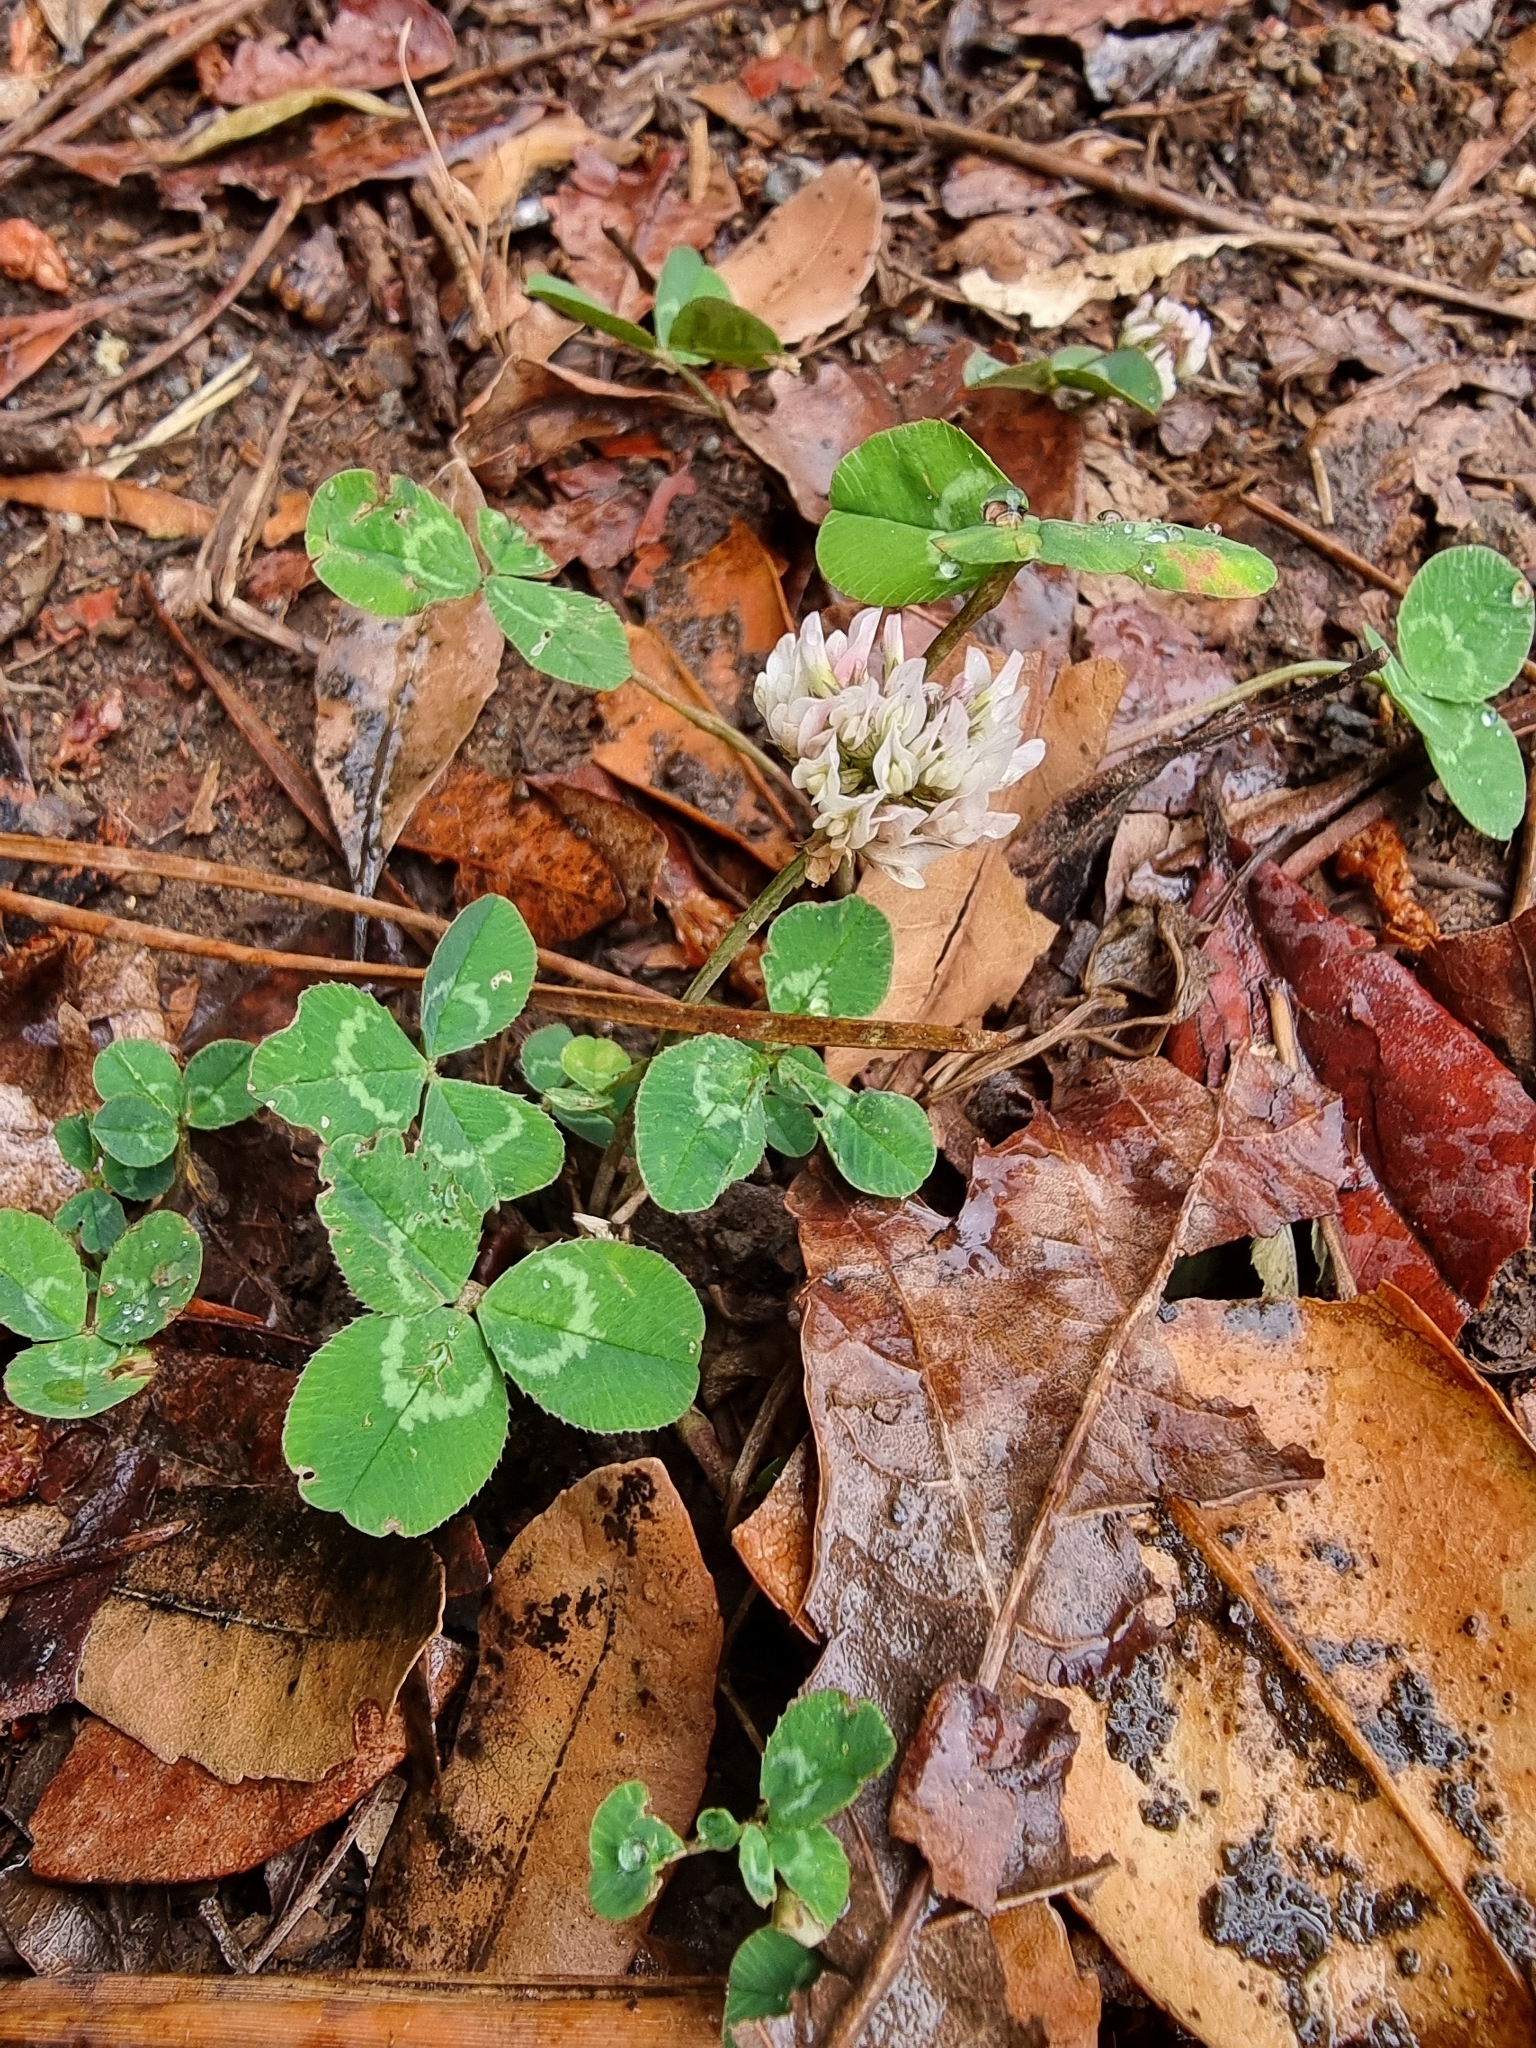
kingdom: Plantae
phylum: Tracheophyta
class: Magnoliopsida
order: Fabales
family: Fabaceae
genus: Trifolium
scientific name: Trifolium repens
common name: White clover
